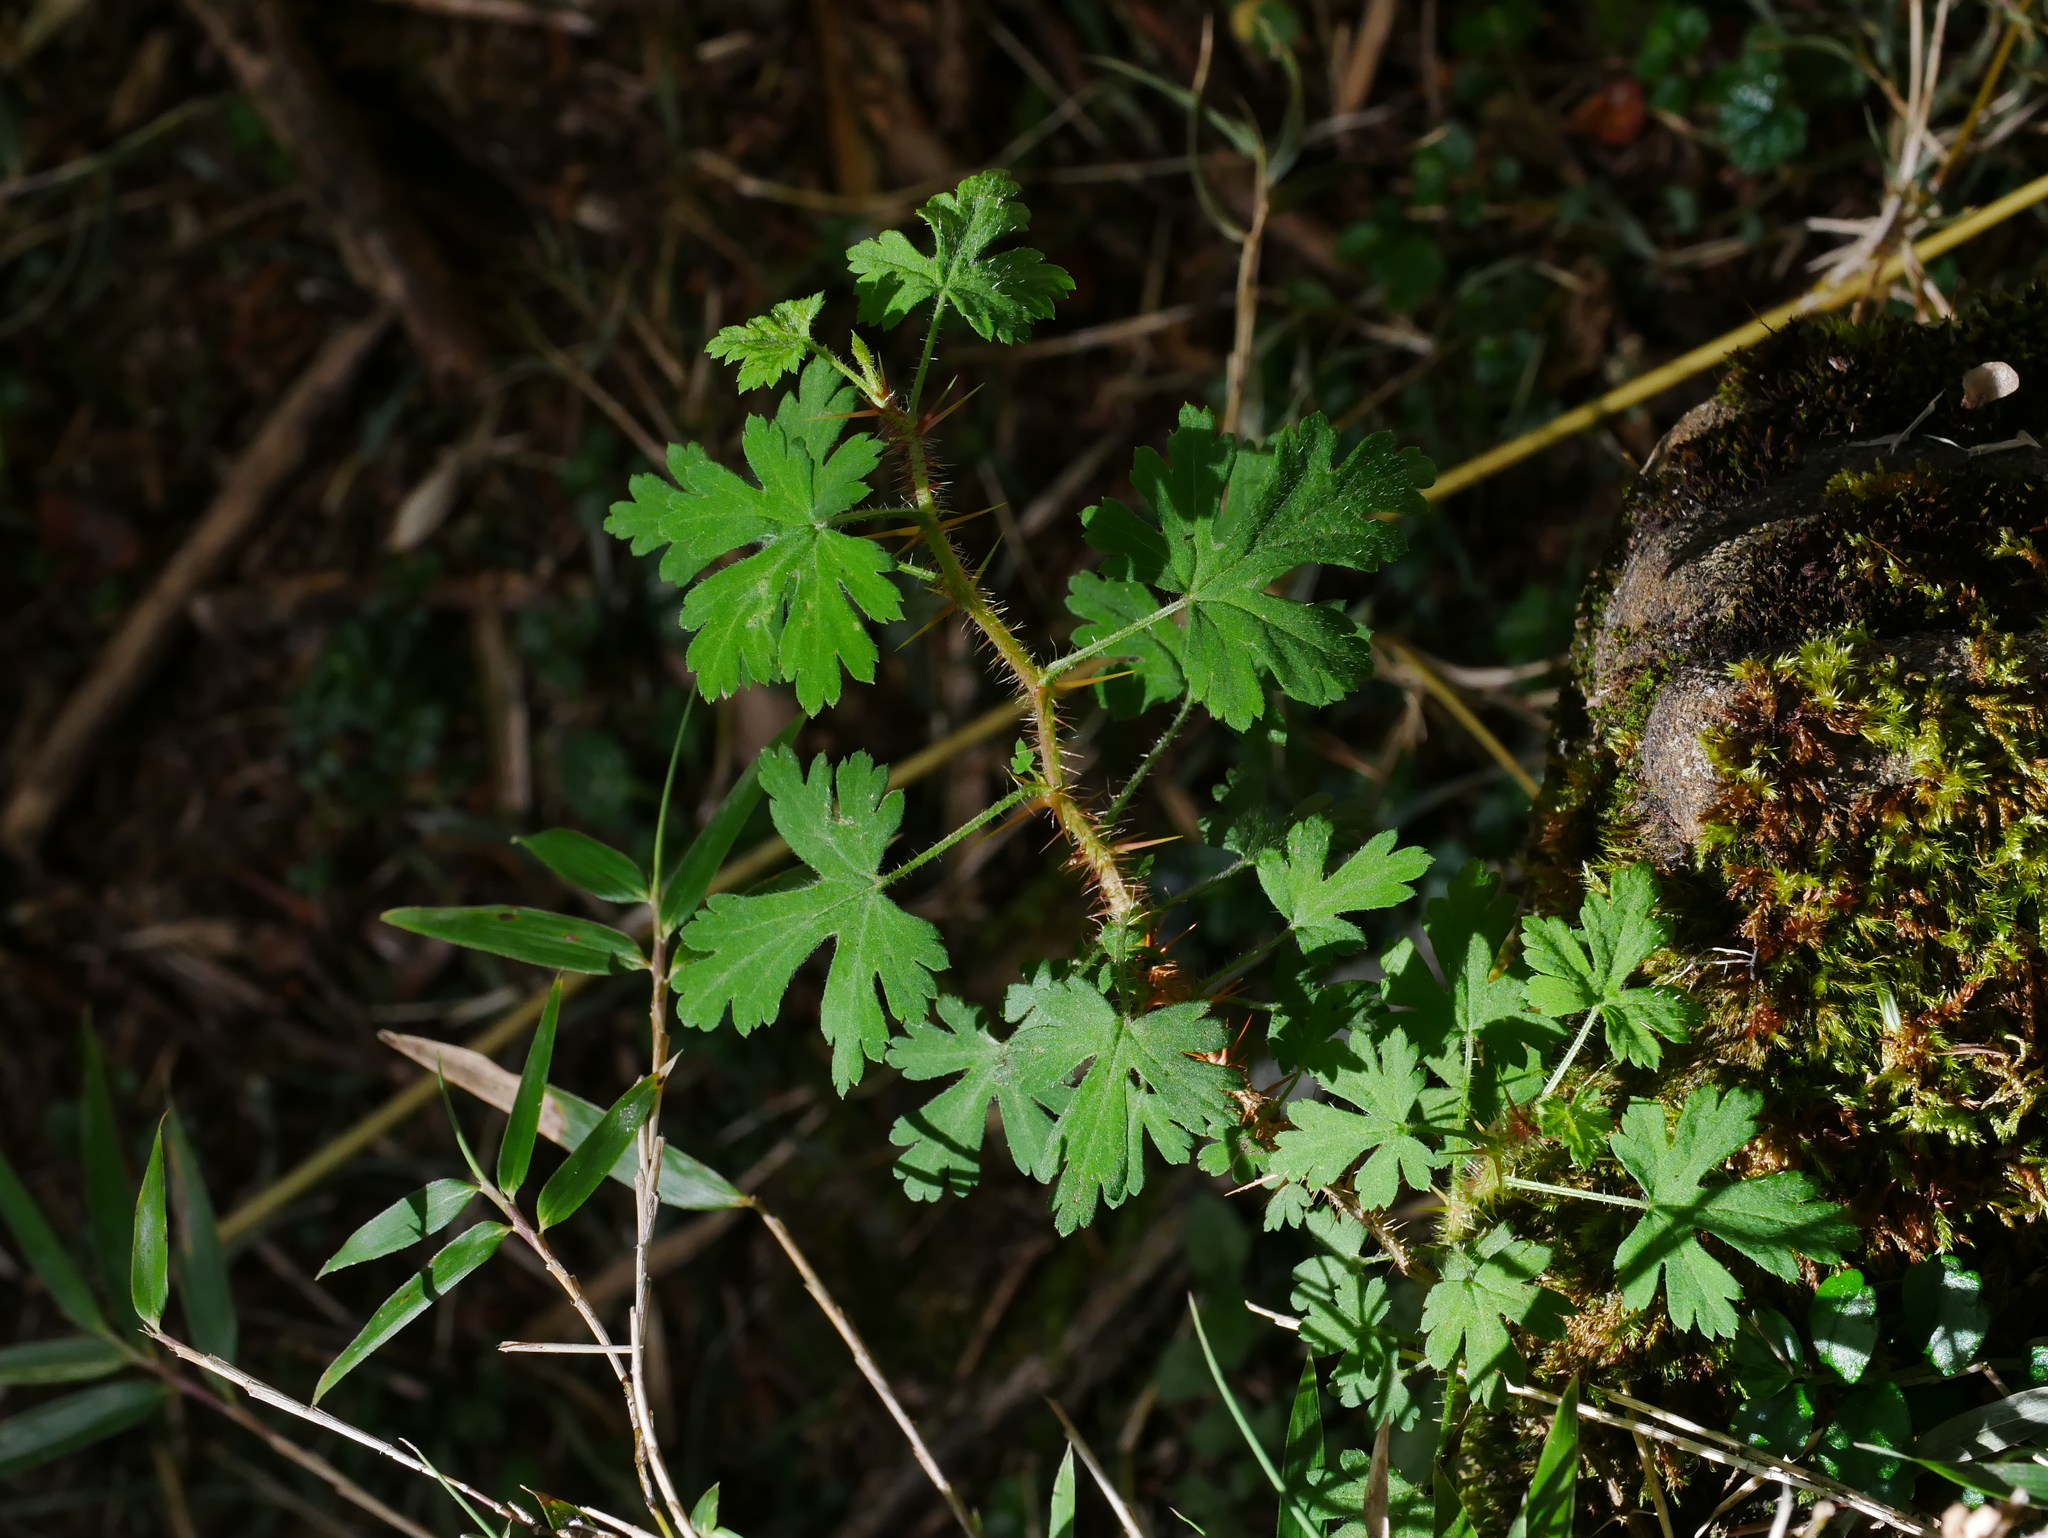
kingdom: Plantae
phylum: Tracheophyta
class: Magnoliopsida
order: Saxifragales
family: Grossulariaceae
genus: Ribes
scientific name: Ribes formosanum
